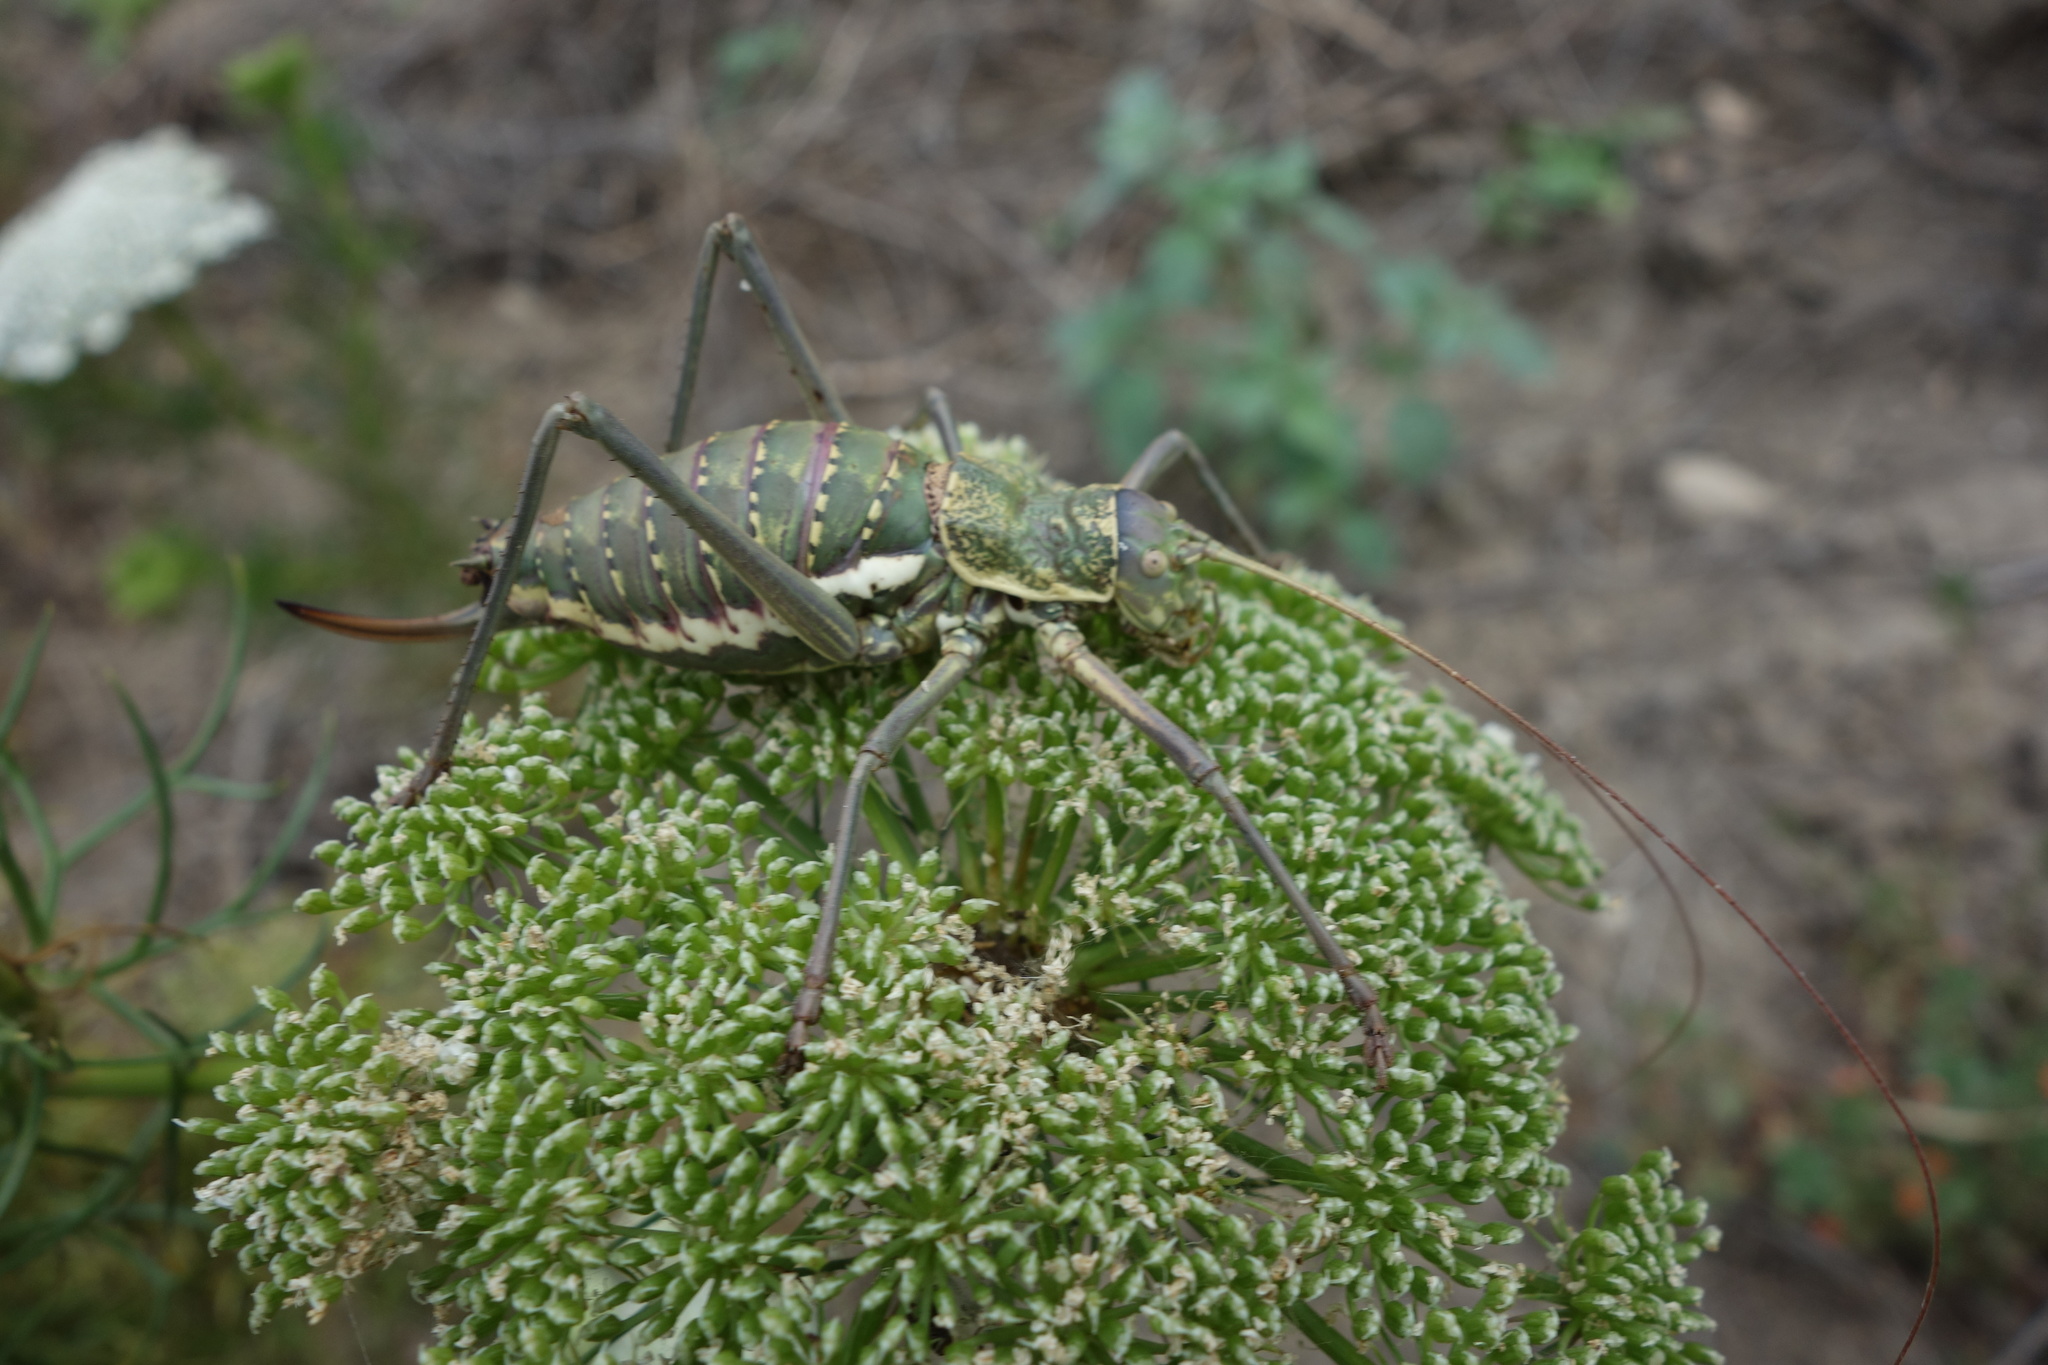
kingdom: Animalia
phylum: Arthropoda
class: Insecta
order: Orthoptera
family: Tettigoniidae
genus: Uromenus
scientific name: Uromenus elegans
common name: Elegant saddle bush-cricket
